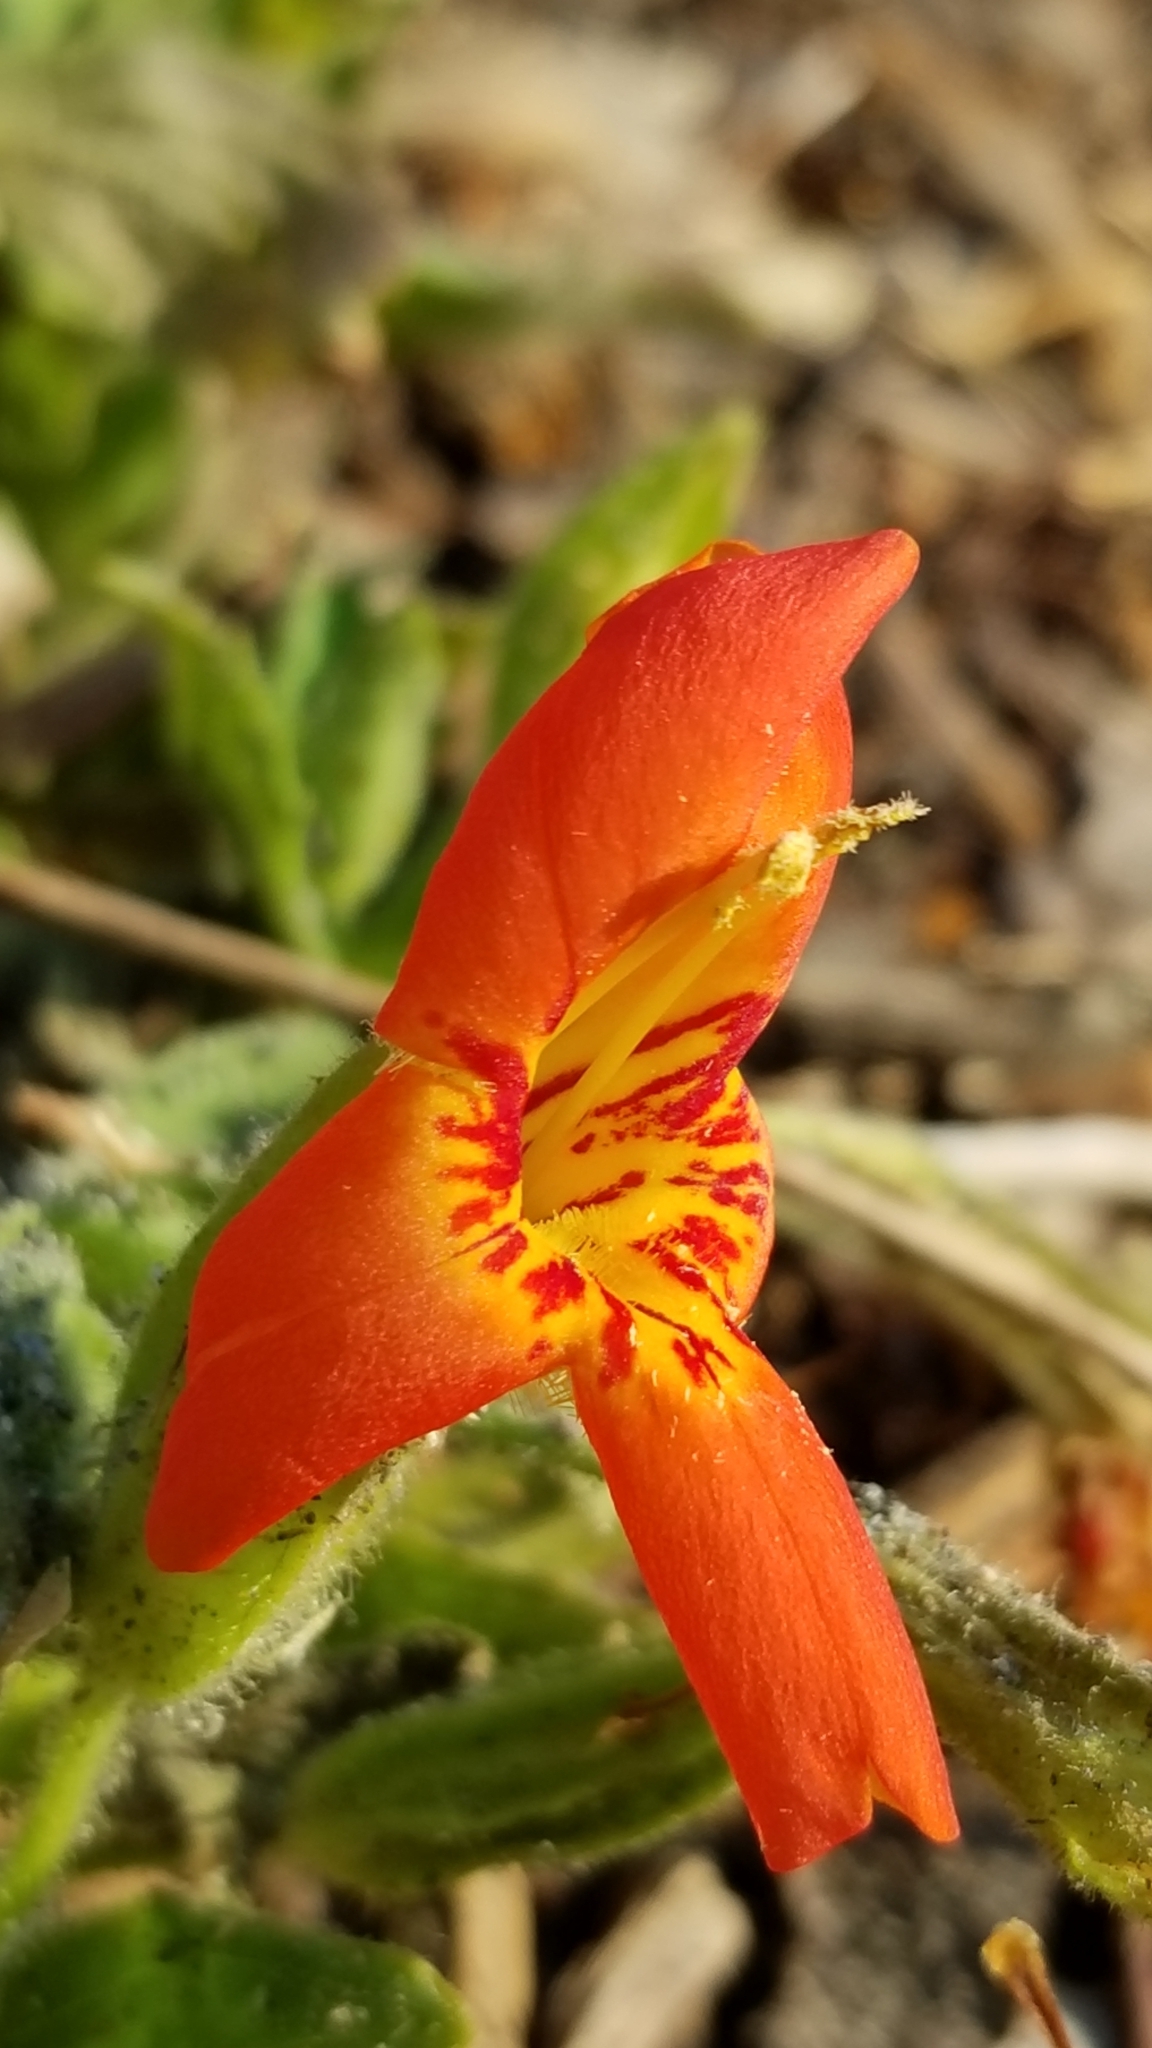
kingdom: Plantae
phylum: Tracheophyta
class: Magnoliopsida
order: Lamiales
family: Phrymaceae
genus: Erythranthe
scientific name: Erythranthe cardinalis
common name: Scarlet monkey-flower
